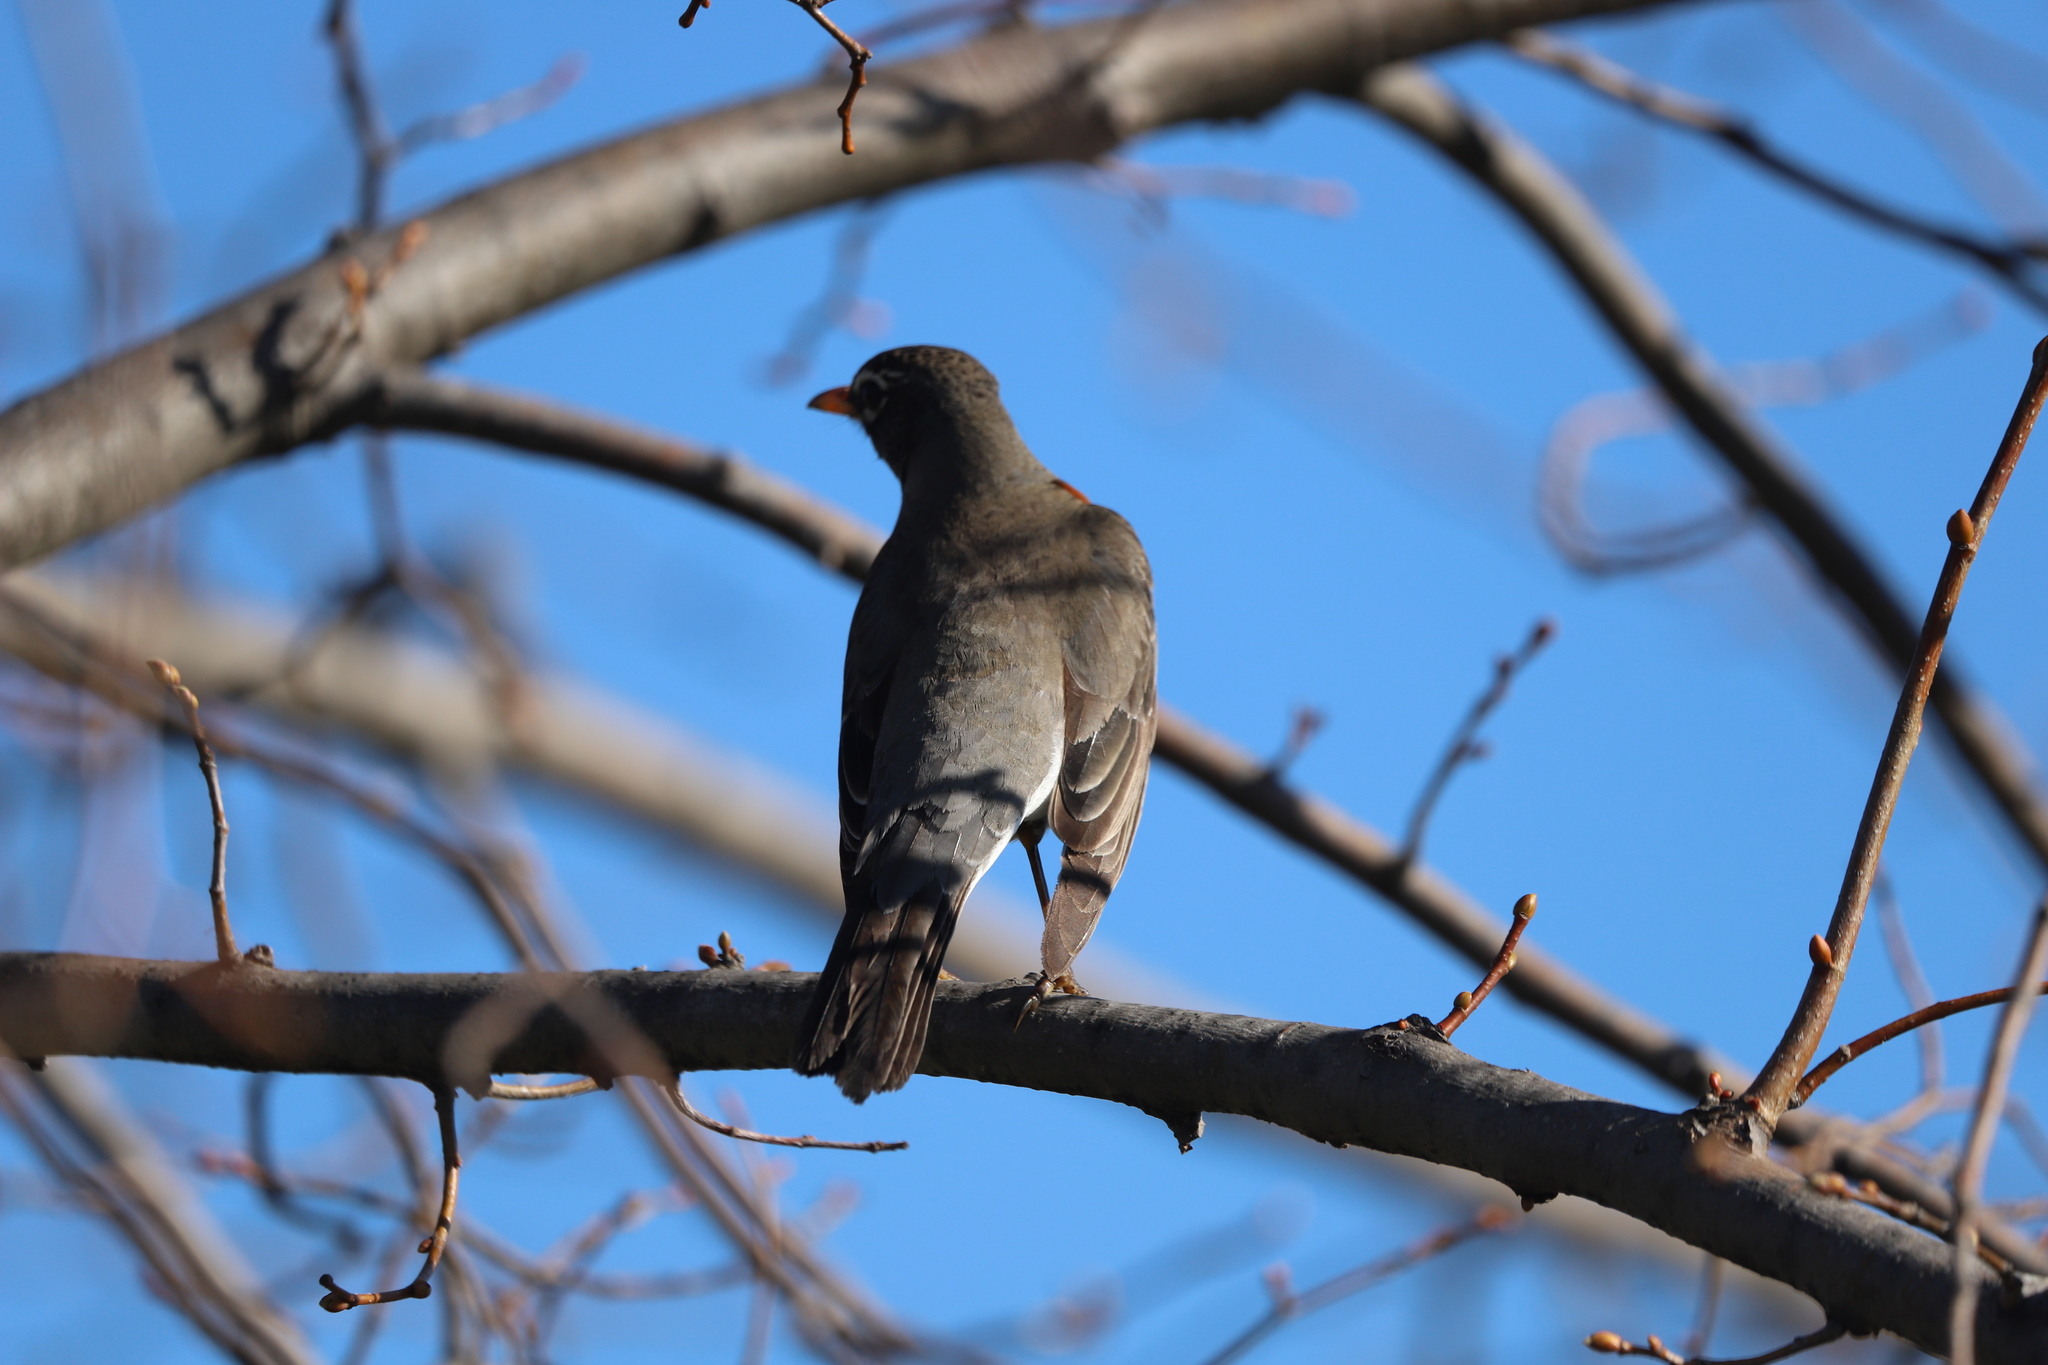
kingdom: Animalia
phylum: Chordata
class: Aves
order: Passeriformes
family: Turdidae
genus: Turdus
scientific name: Turdus migratorius
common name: American robin
